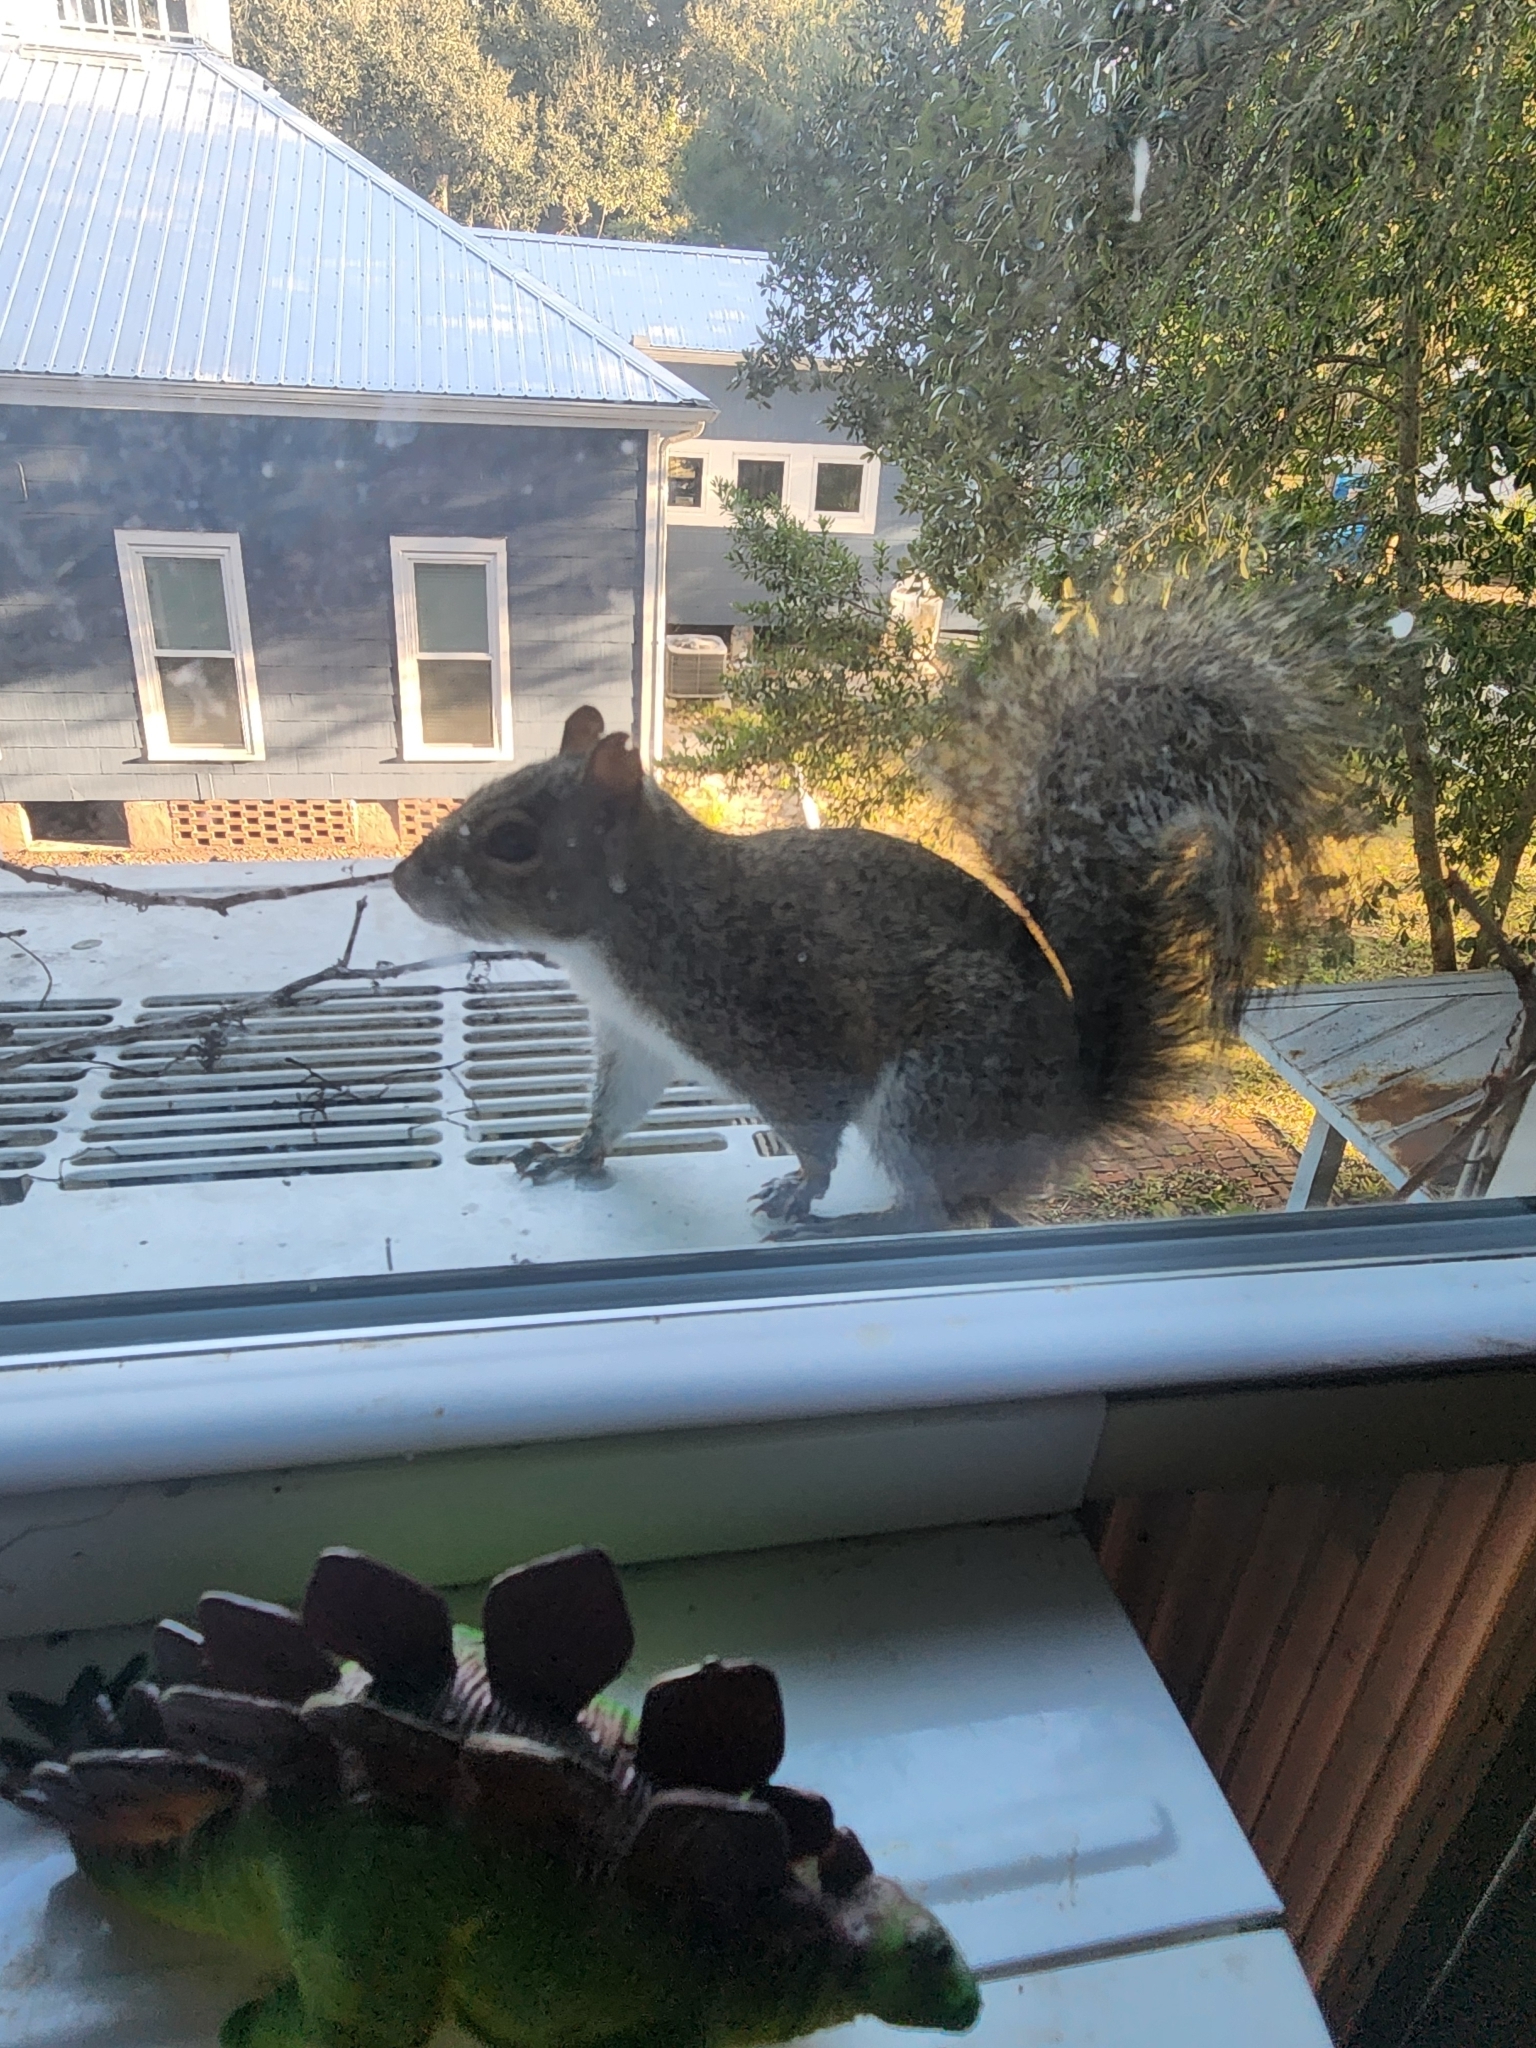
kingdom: Animalia
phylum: Chordata
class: Mammalia
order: Rodentia
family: Sciuridae
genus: Sciurus
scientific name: Sciurus carolinensis
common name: Eastern gray squirrel
